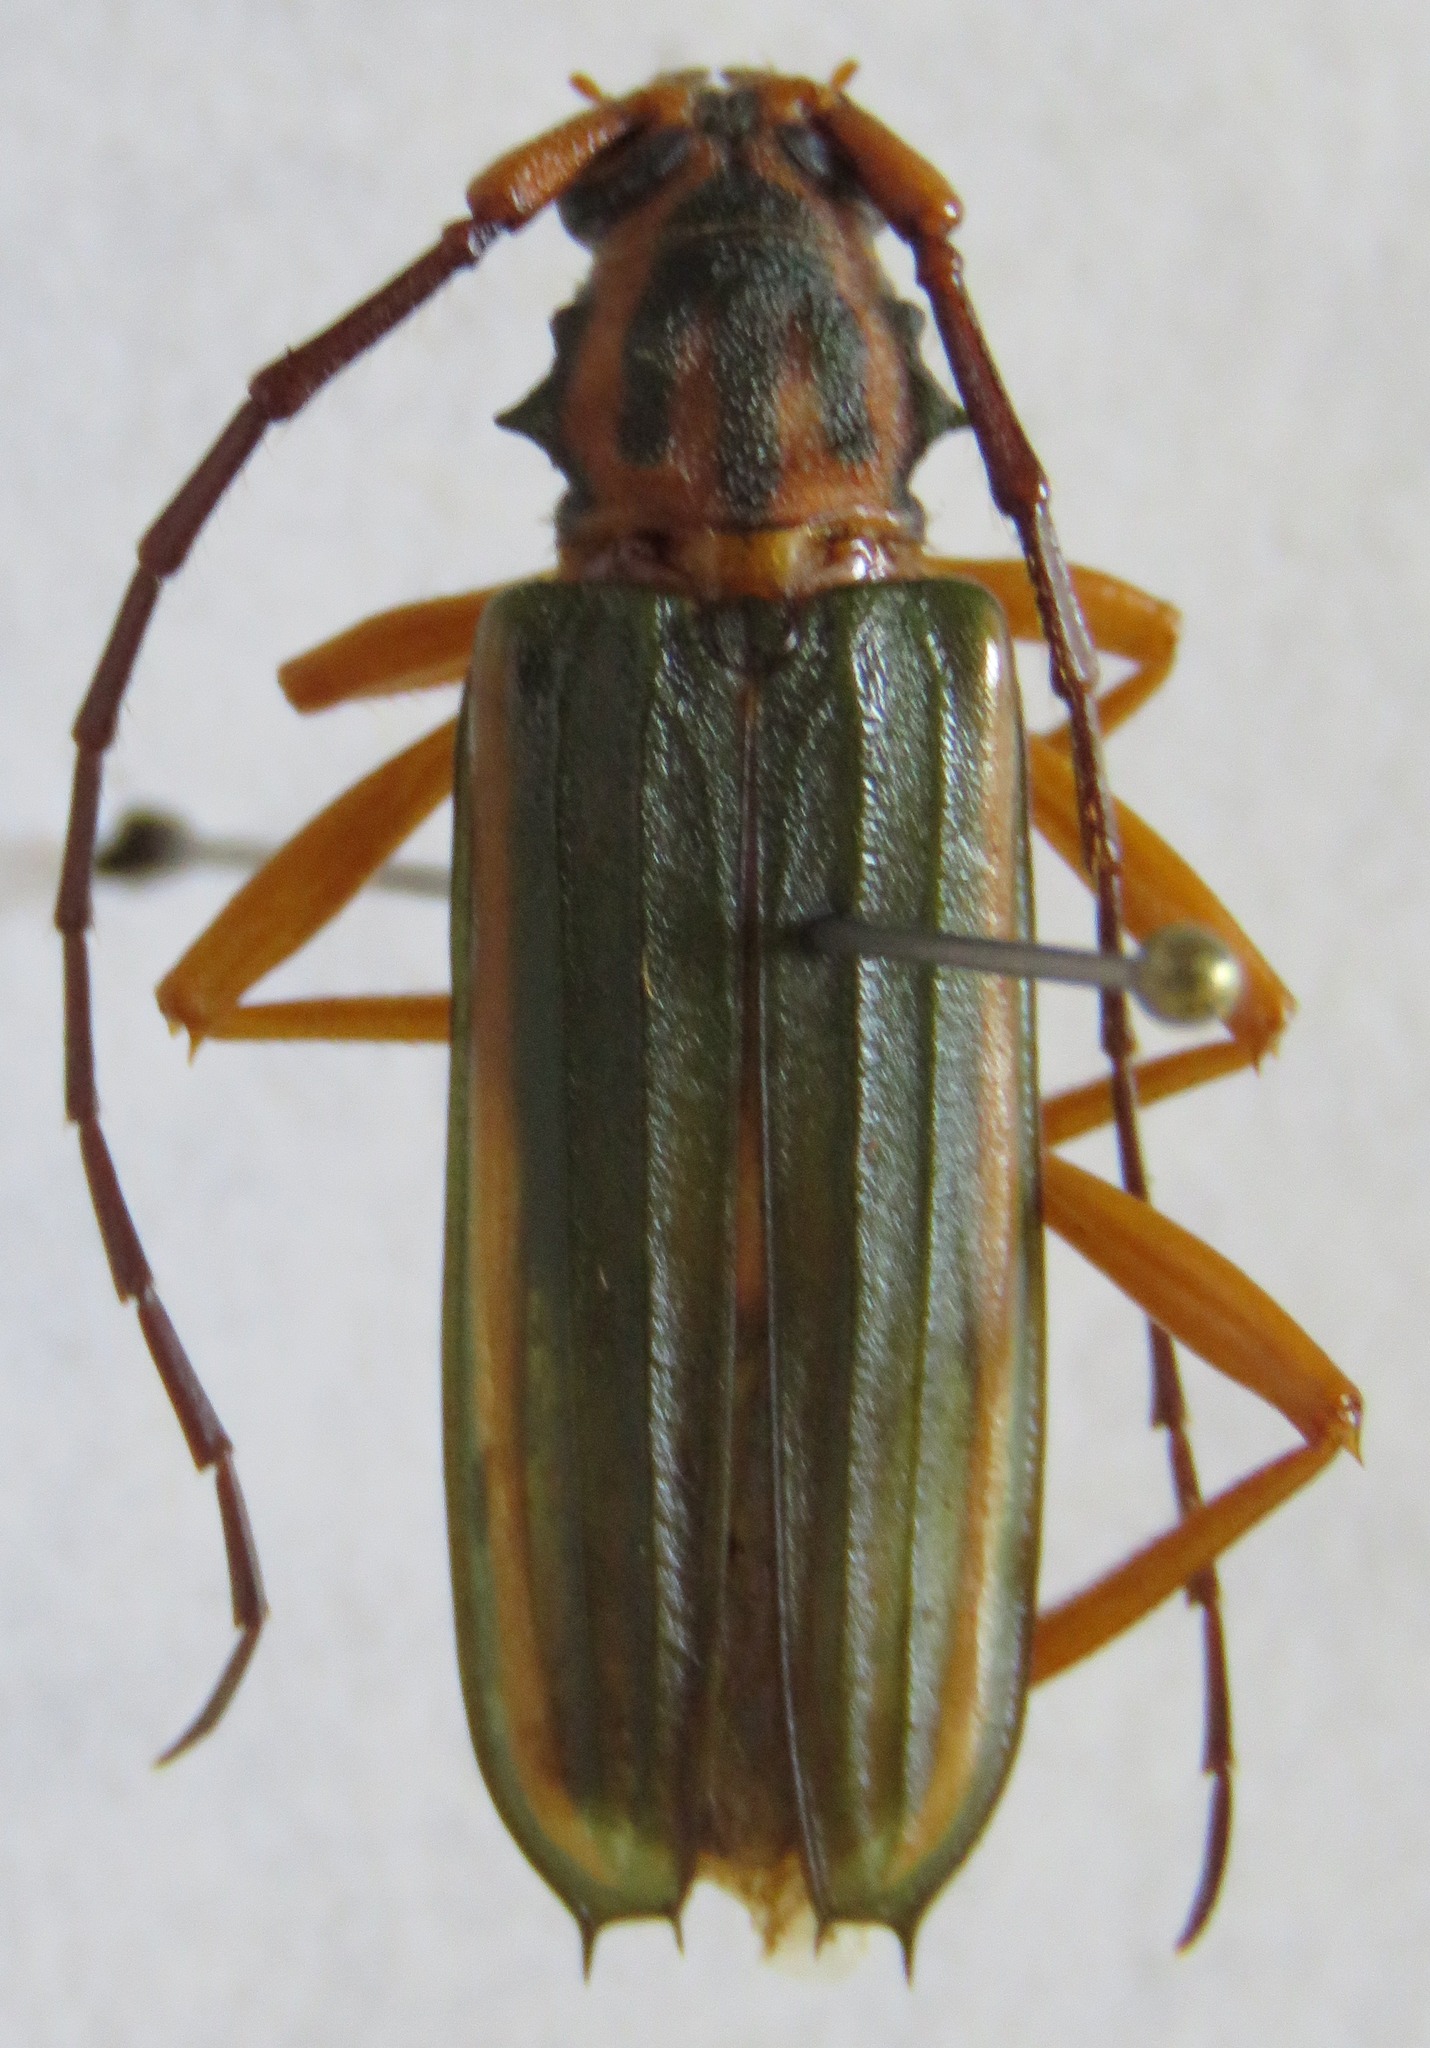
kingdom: Animalia
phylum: Arthropoda
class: Insecta
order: Coleoptera
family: Cerambycidae
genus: Chlorida
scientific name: Chlorida festiva
